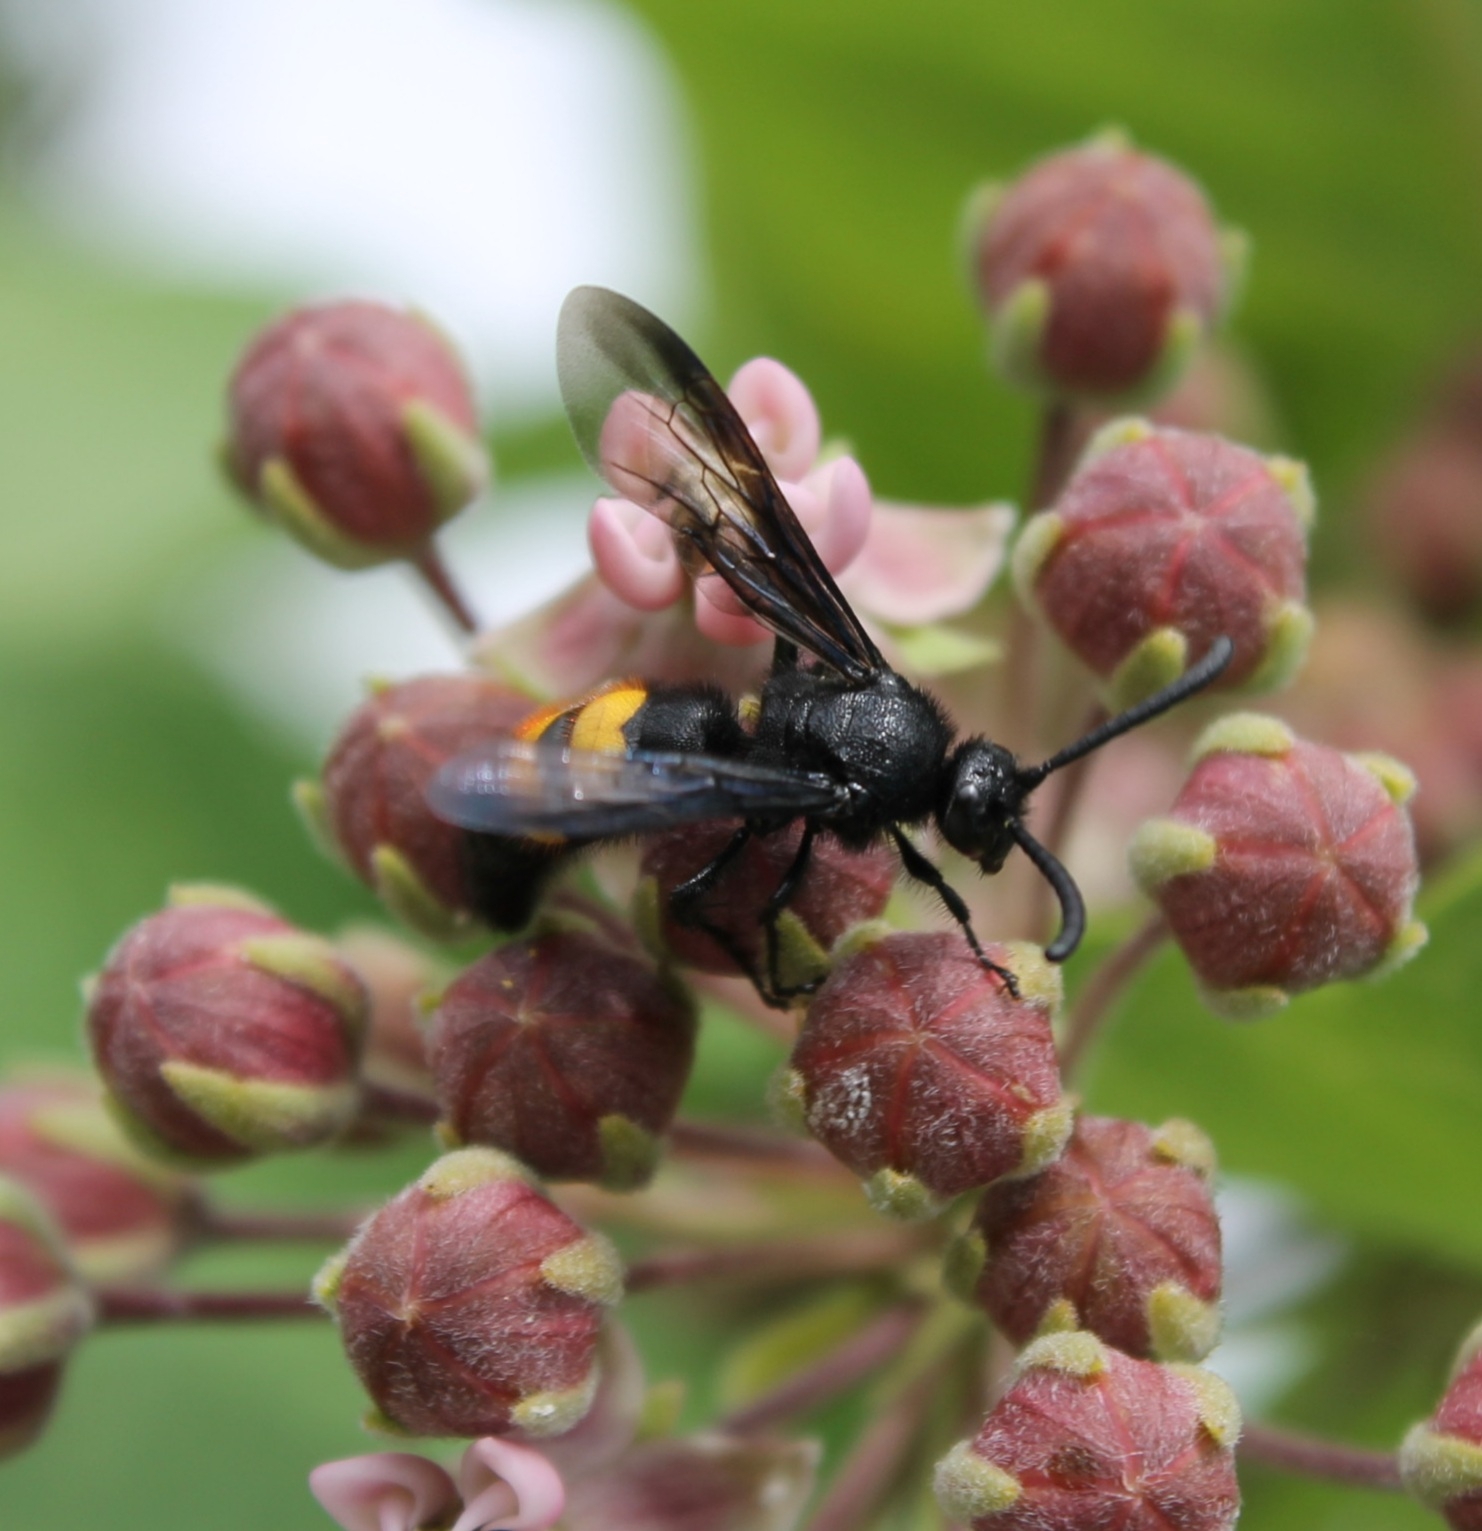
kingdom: Animalia
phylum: Arthropoda
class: Insecta
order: Hymenoptera
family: Scoliidae
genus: Scolia
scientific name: Scolia hirta
